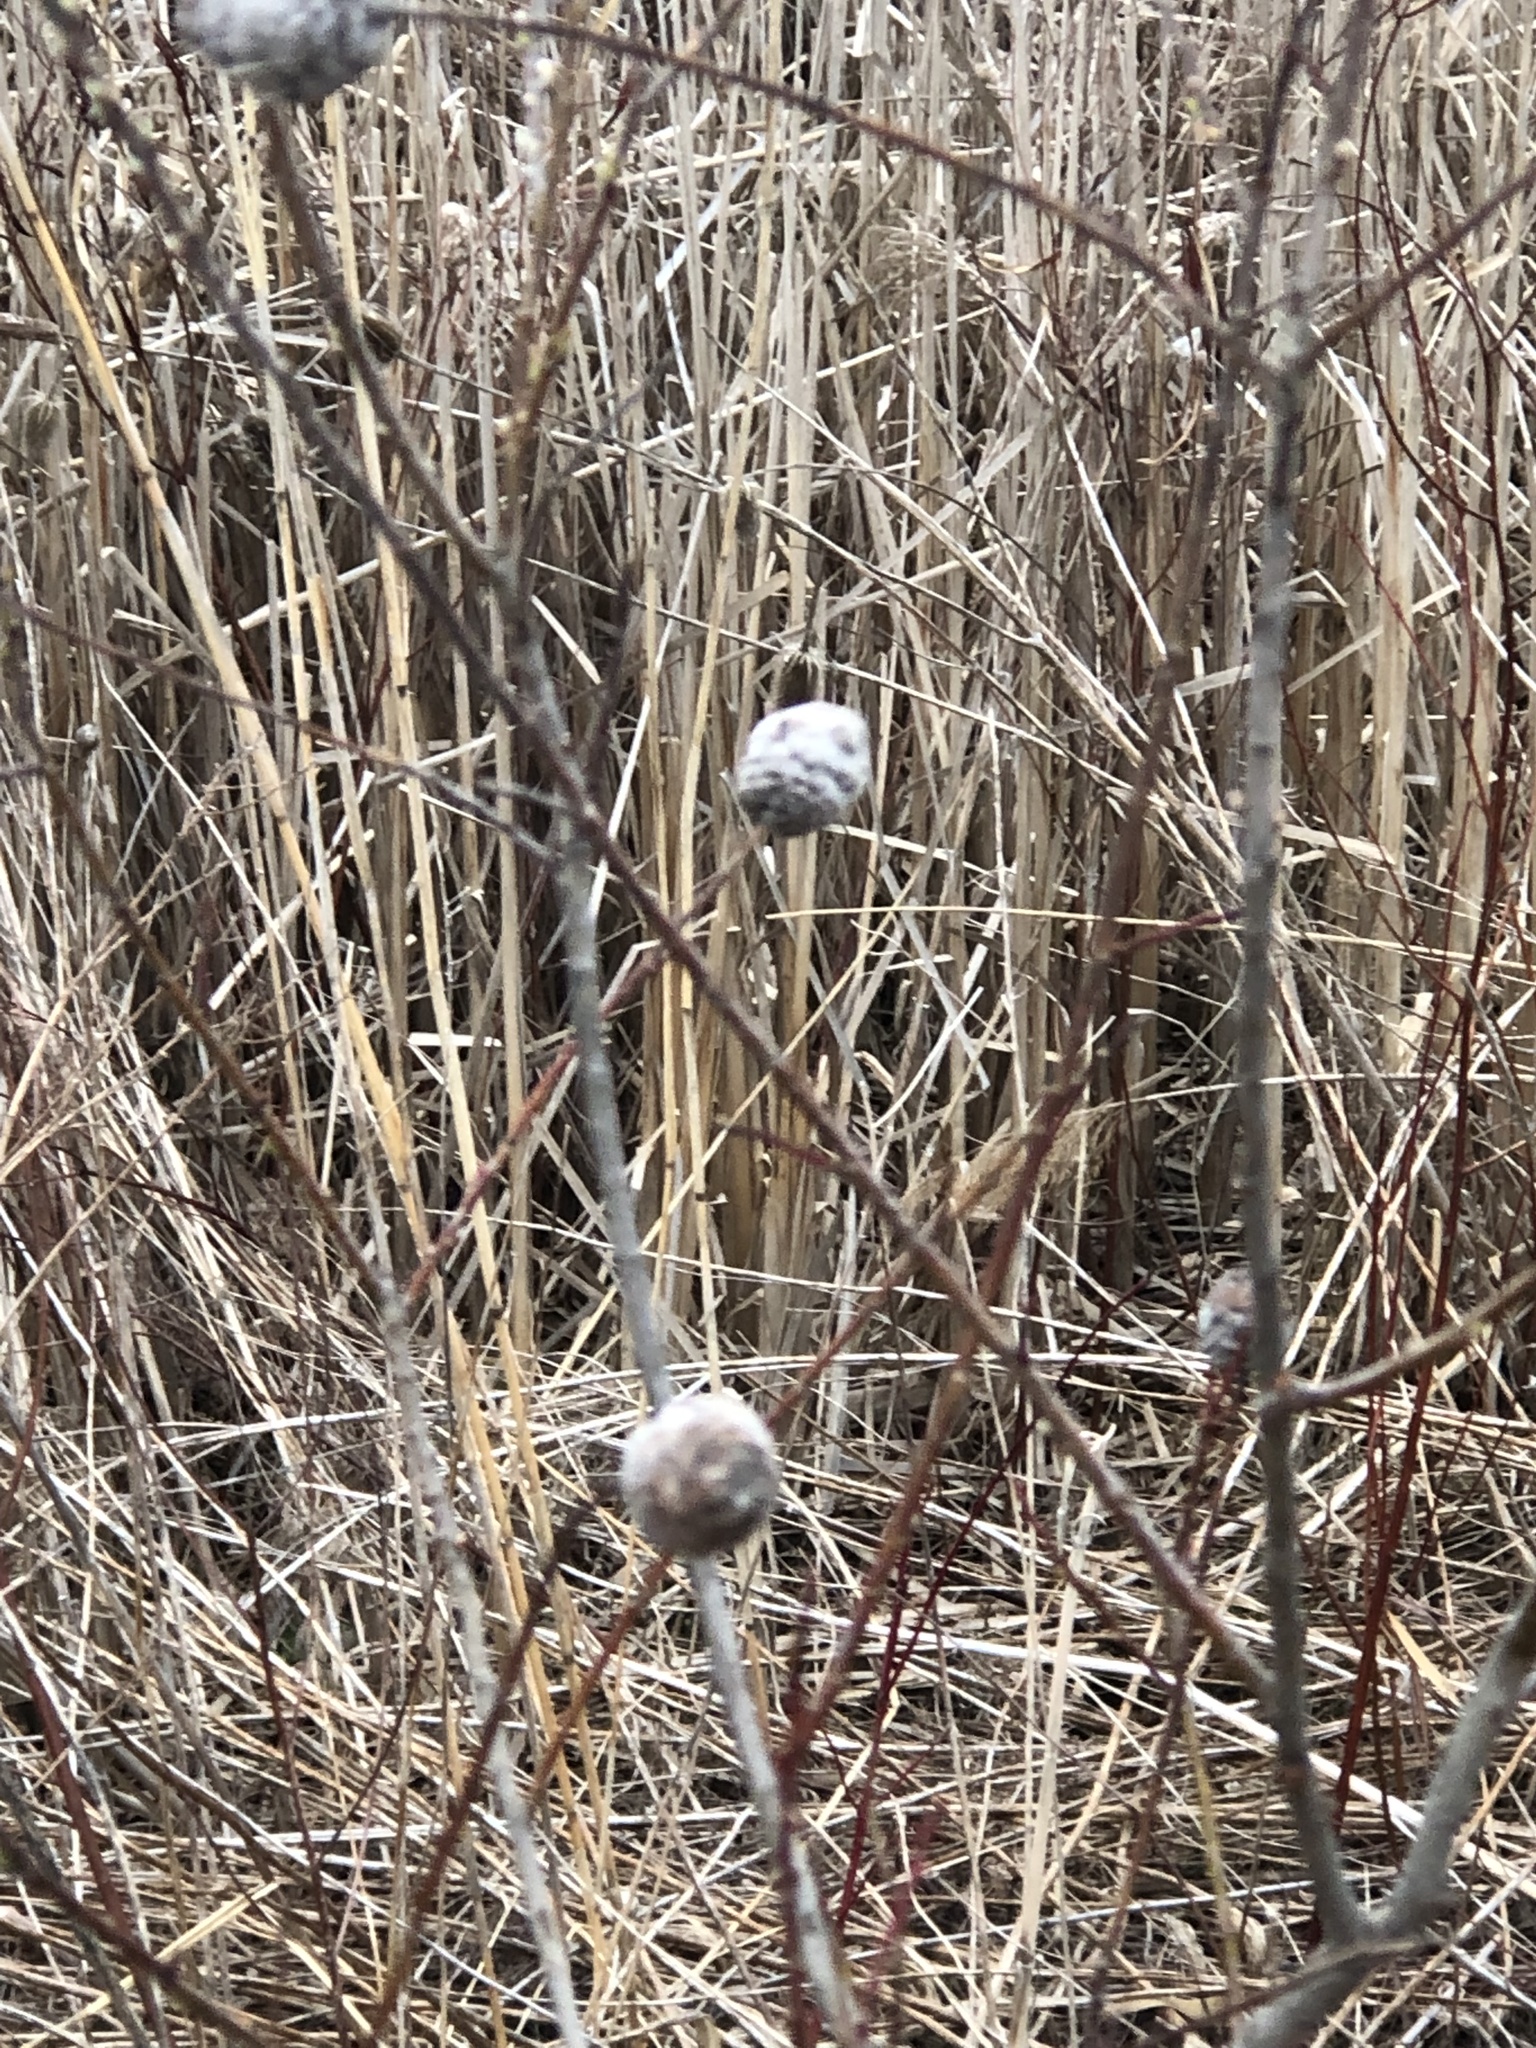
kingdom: Animalia
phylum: Arthropoda
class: Insecta
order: Diptera
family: Cecidomyiidae
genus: Rabdophaga
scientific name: Rabdophaga strobiloides
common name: Willow pinecone gall midge
